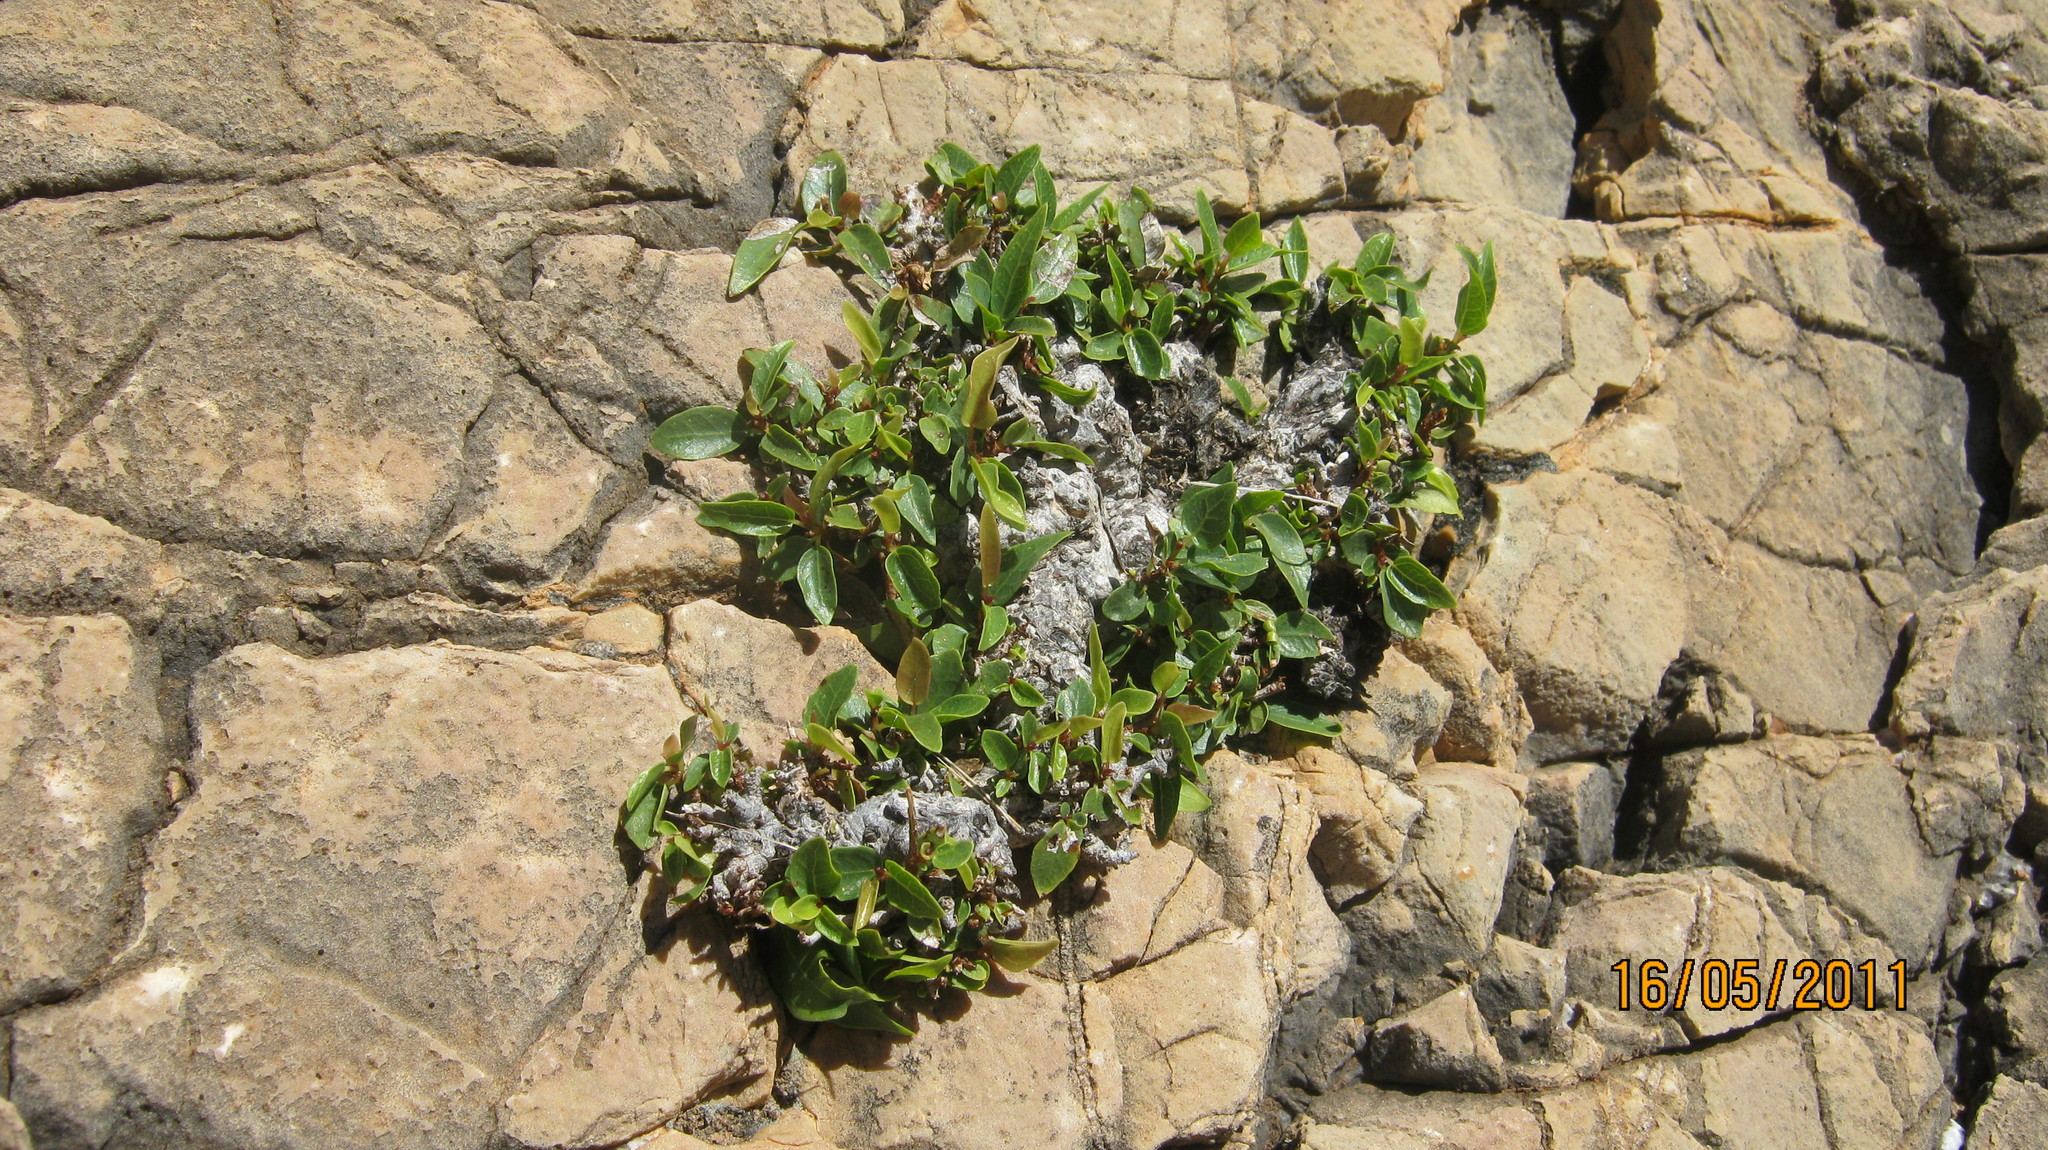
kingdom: Plantae
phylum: Tracheophyta
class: Magnoliopsida
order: Rosales
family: Moraceae
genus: Ficus
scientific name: Ficus ilicina
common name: Laurel rock fig
